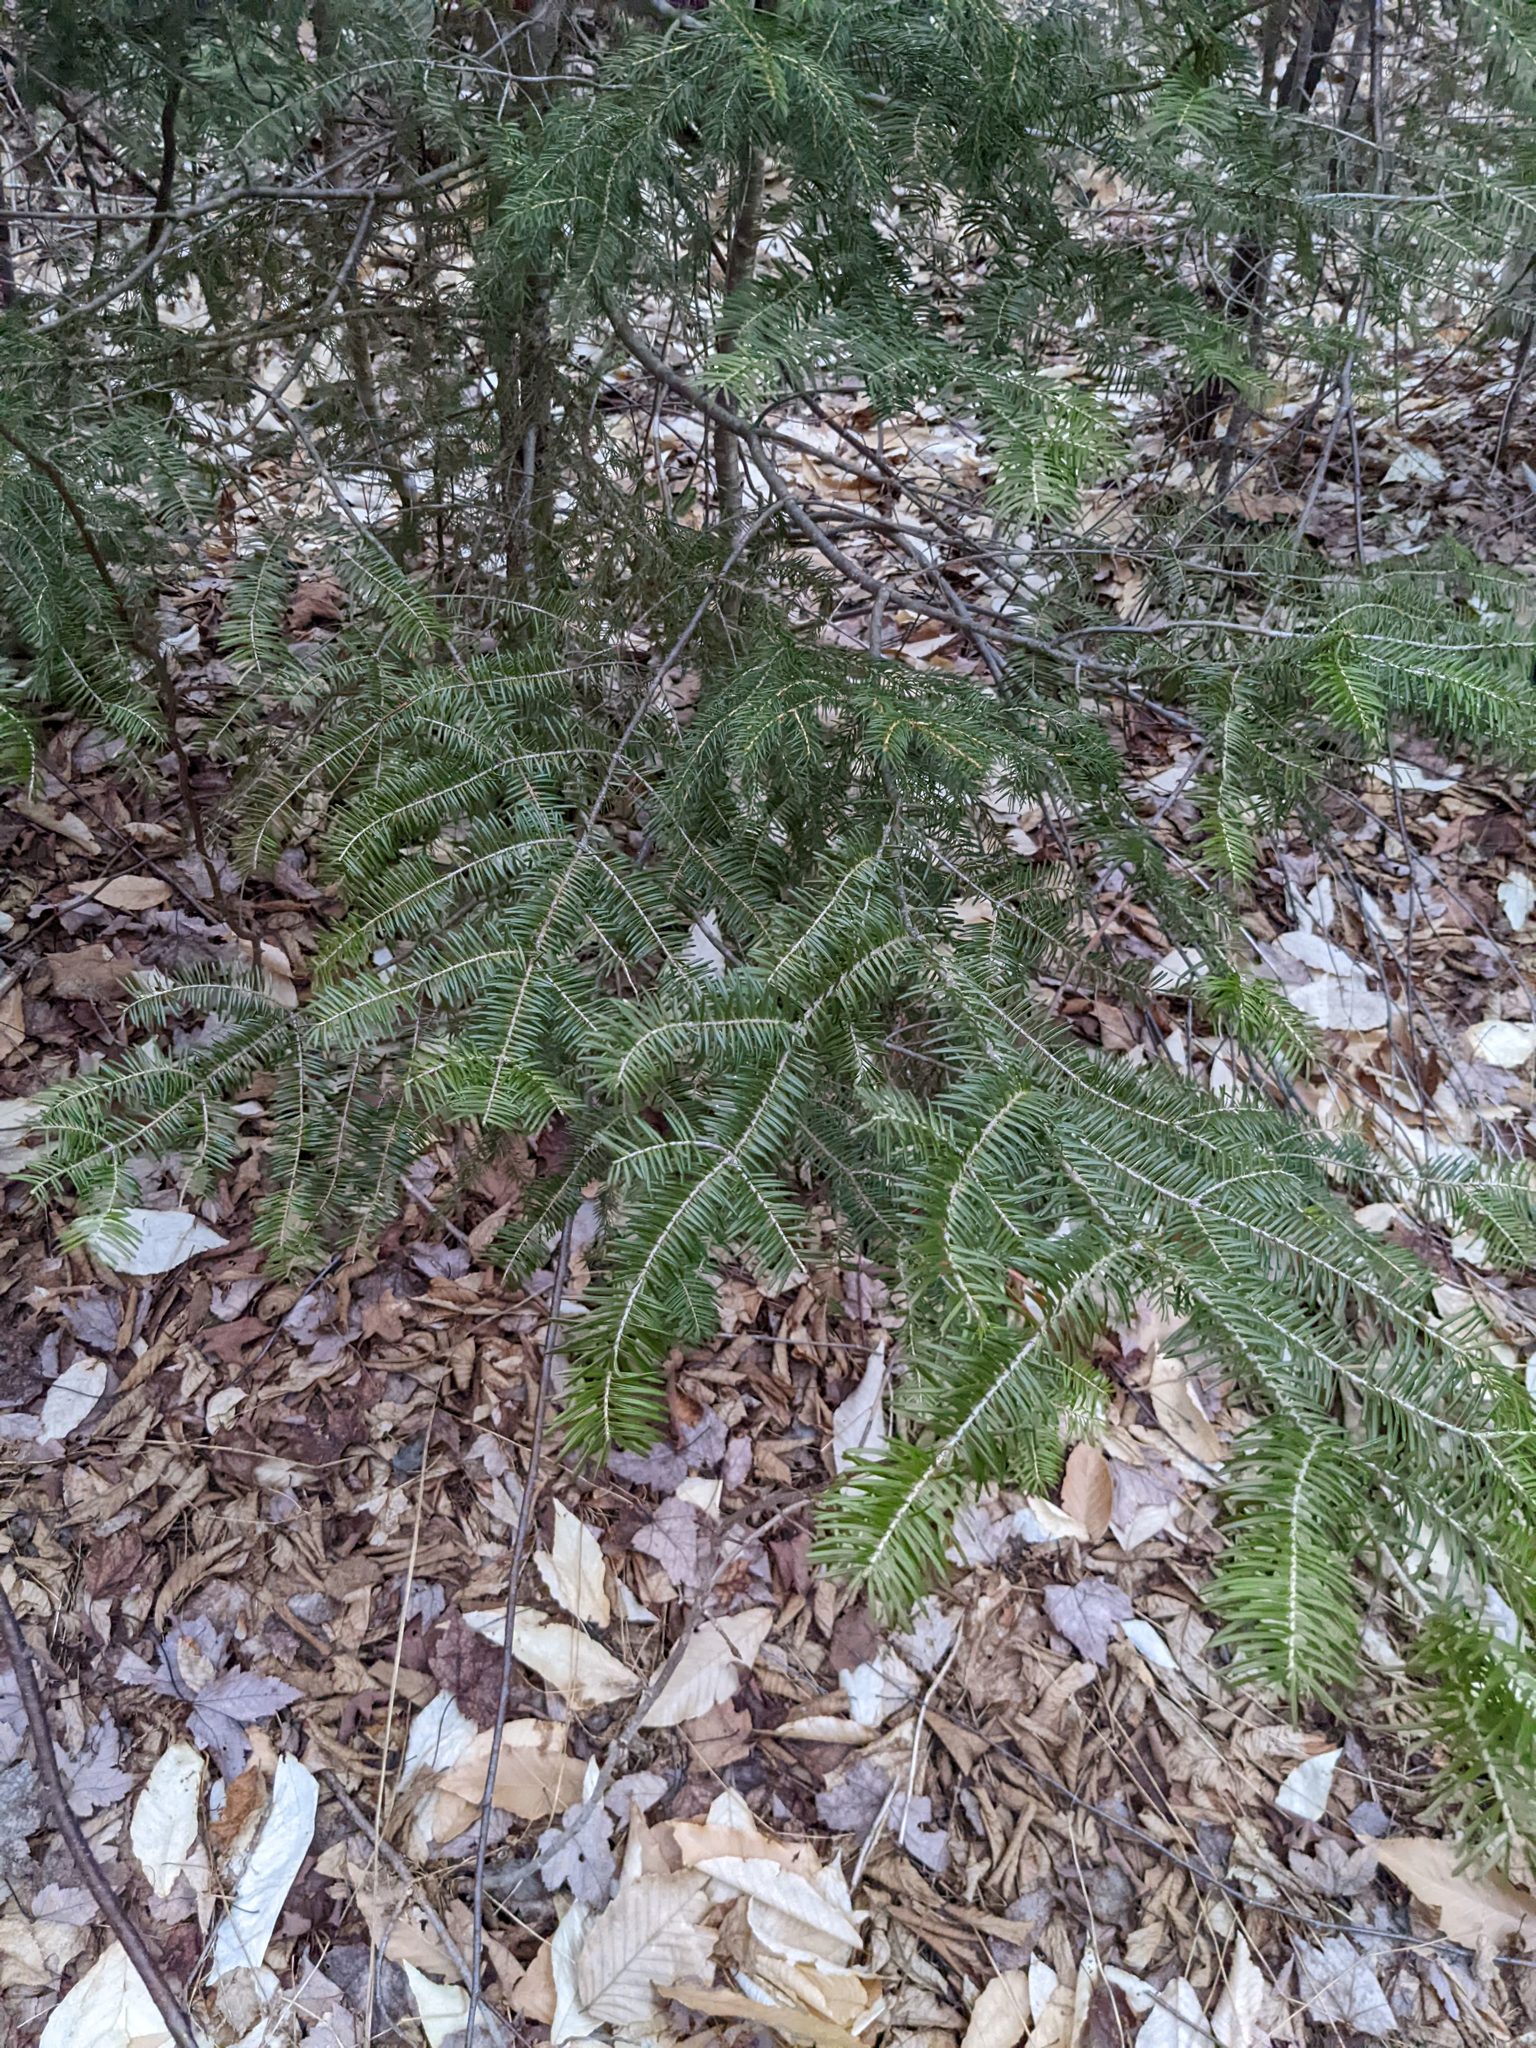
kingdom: Plantae
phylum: Tracheophyta
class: Pinopsida
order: Pinales
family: Pinaceae
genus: Abies
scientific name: Abies balsamea
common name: Balsam fir
